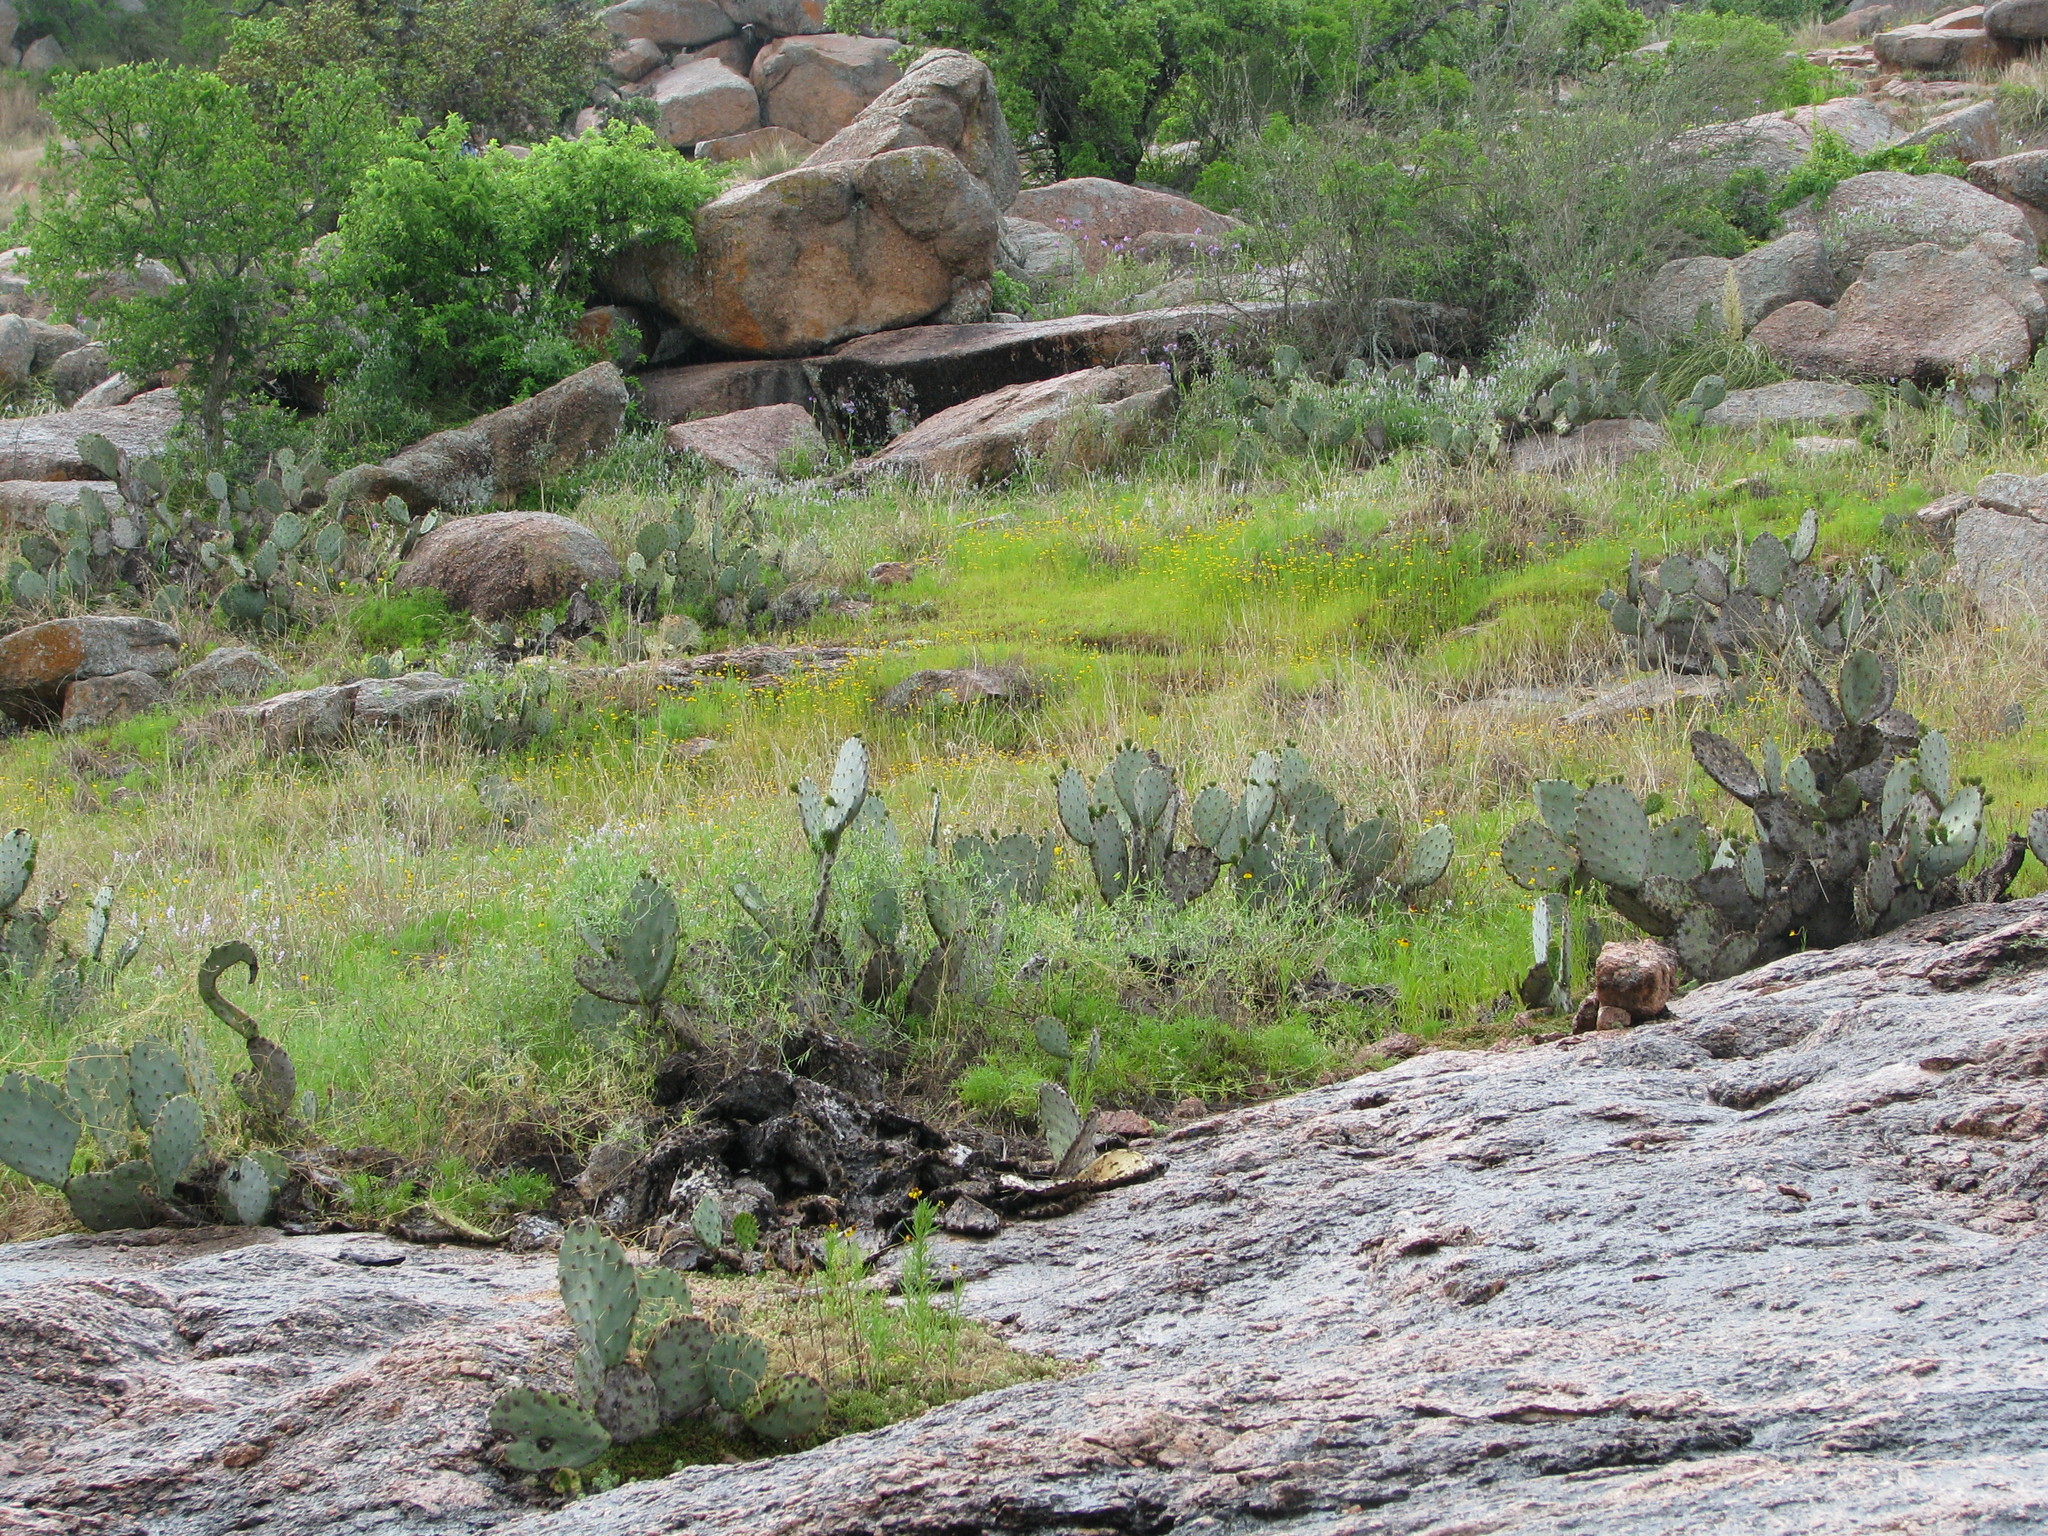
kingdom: Plantae
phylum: Tracheophyta
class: Magnoliopsida
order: Caryophyllales
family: Cactaceae
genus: Opuntia
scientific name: Opuntia orbiculata
